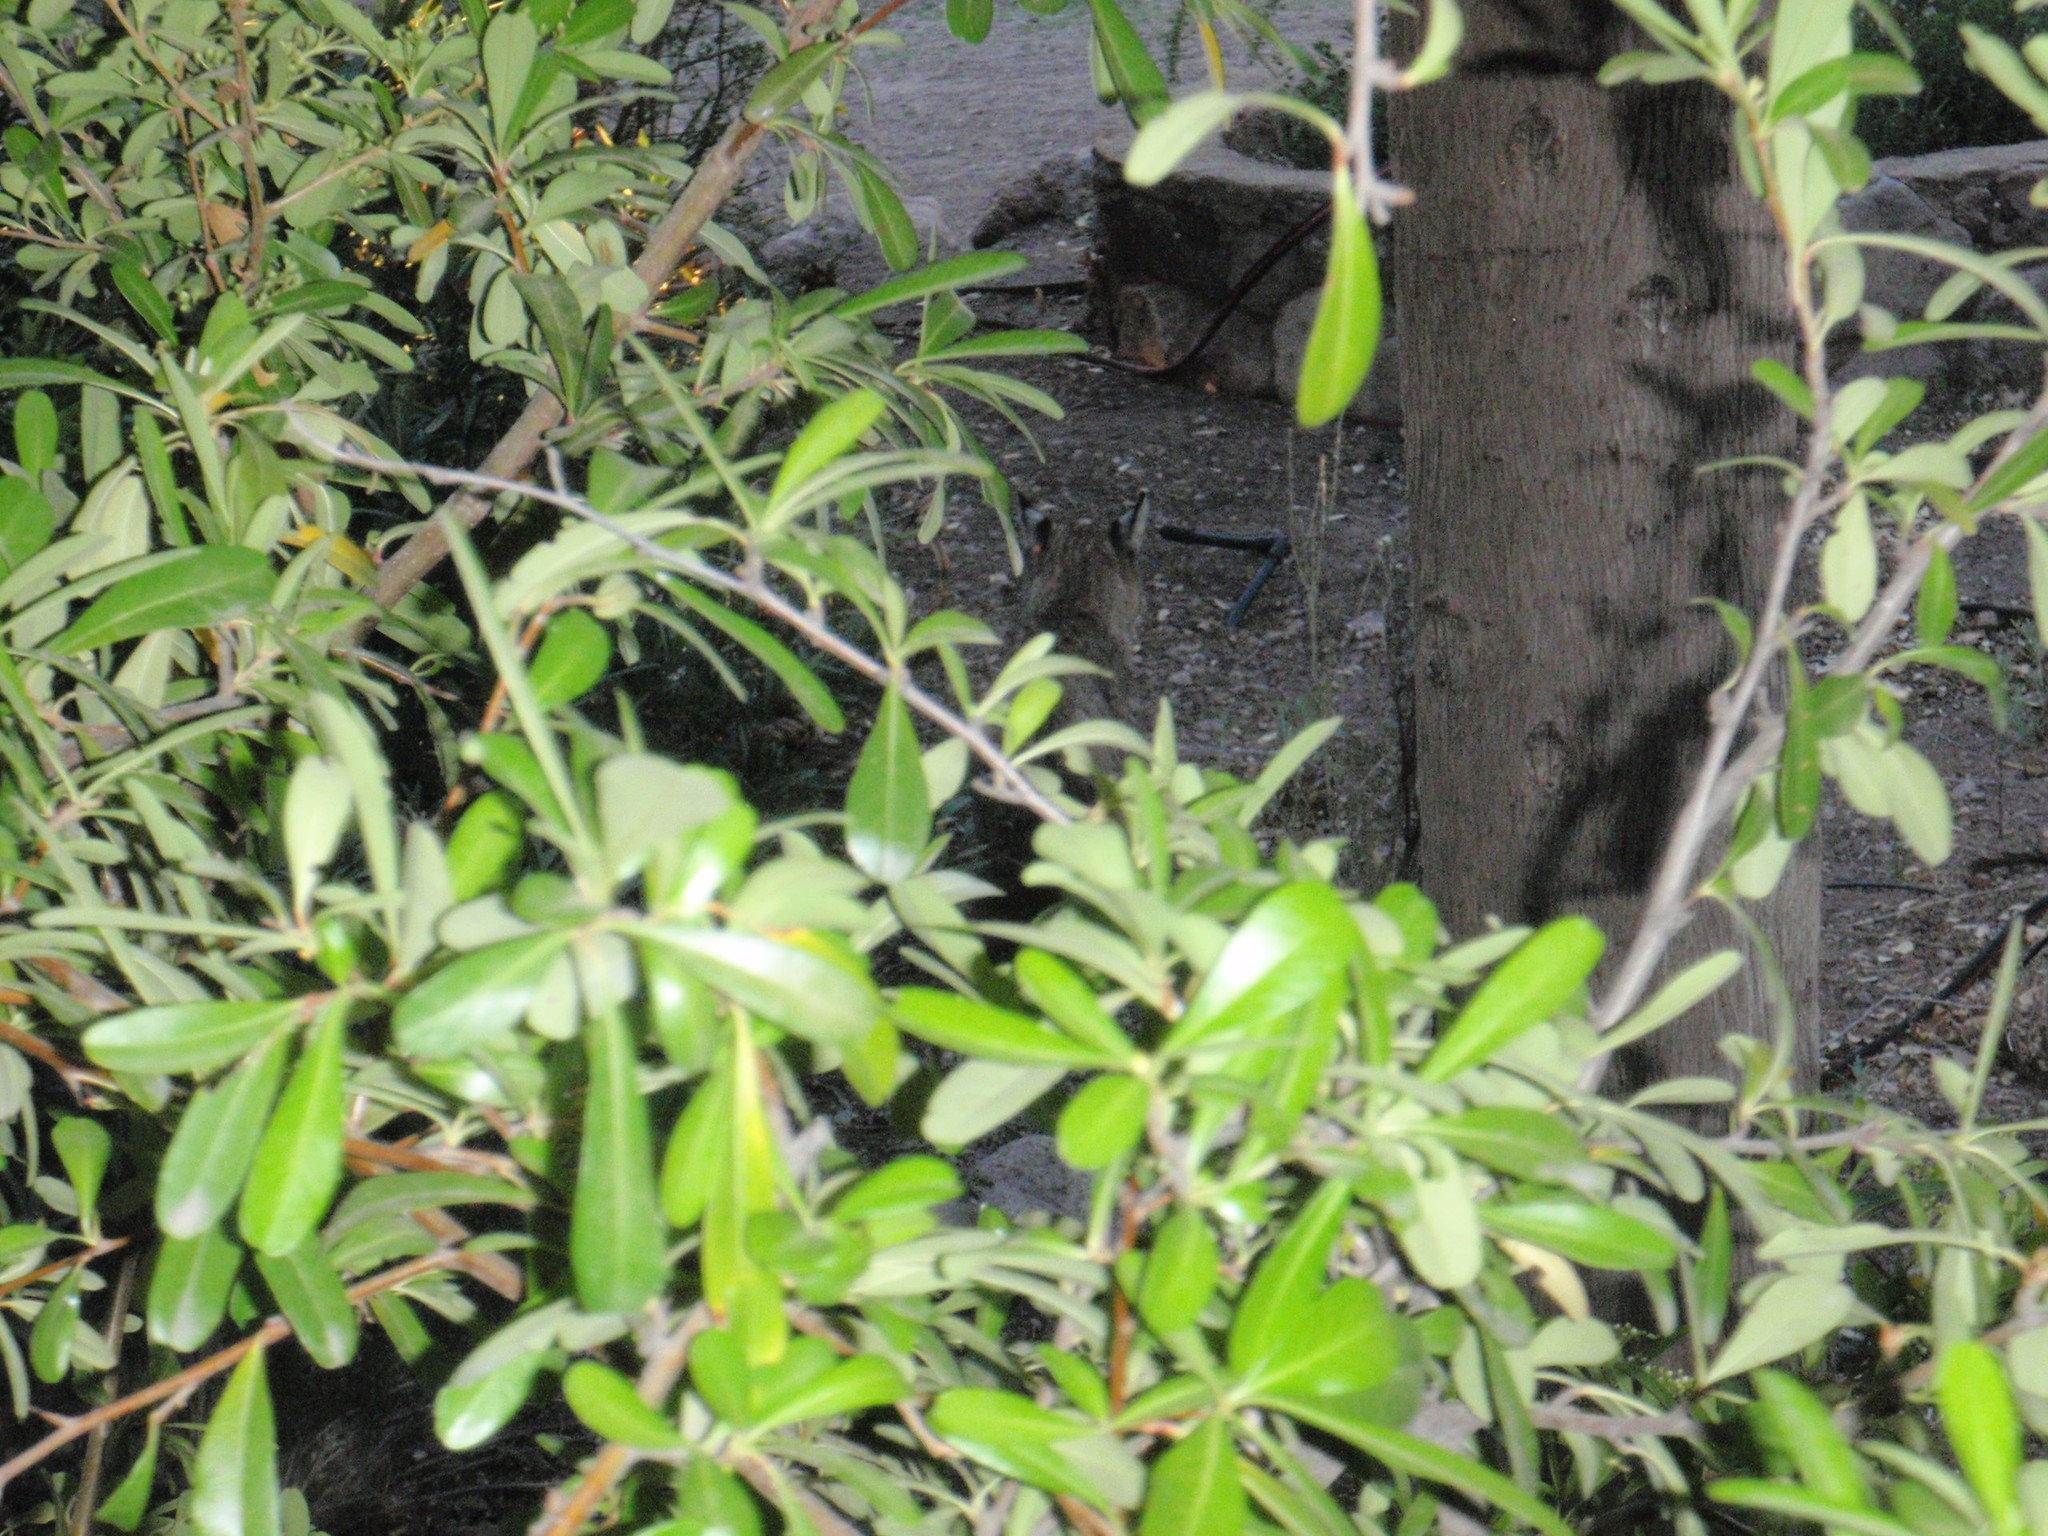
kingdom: Animalia
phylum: Chordata
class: Mammalia
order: Carnivora
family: Felidae
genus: Lynx
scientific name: Lynx rufus
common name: Bobcat
